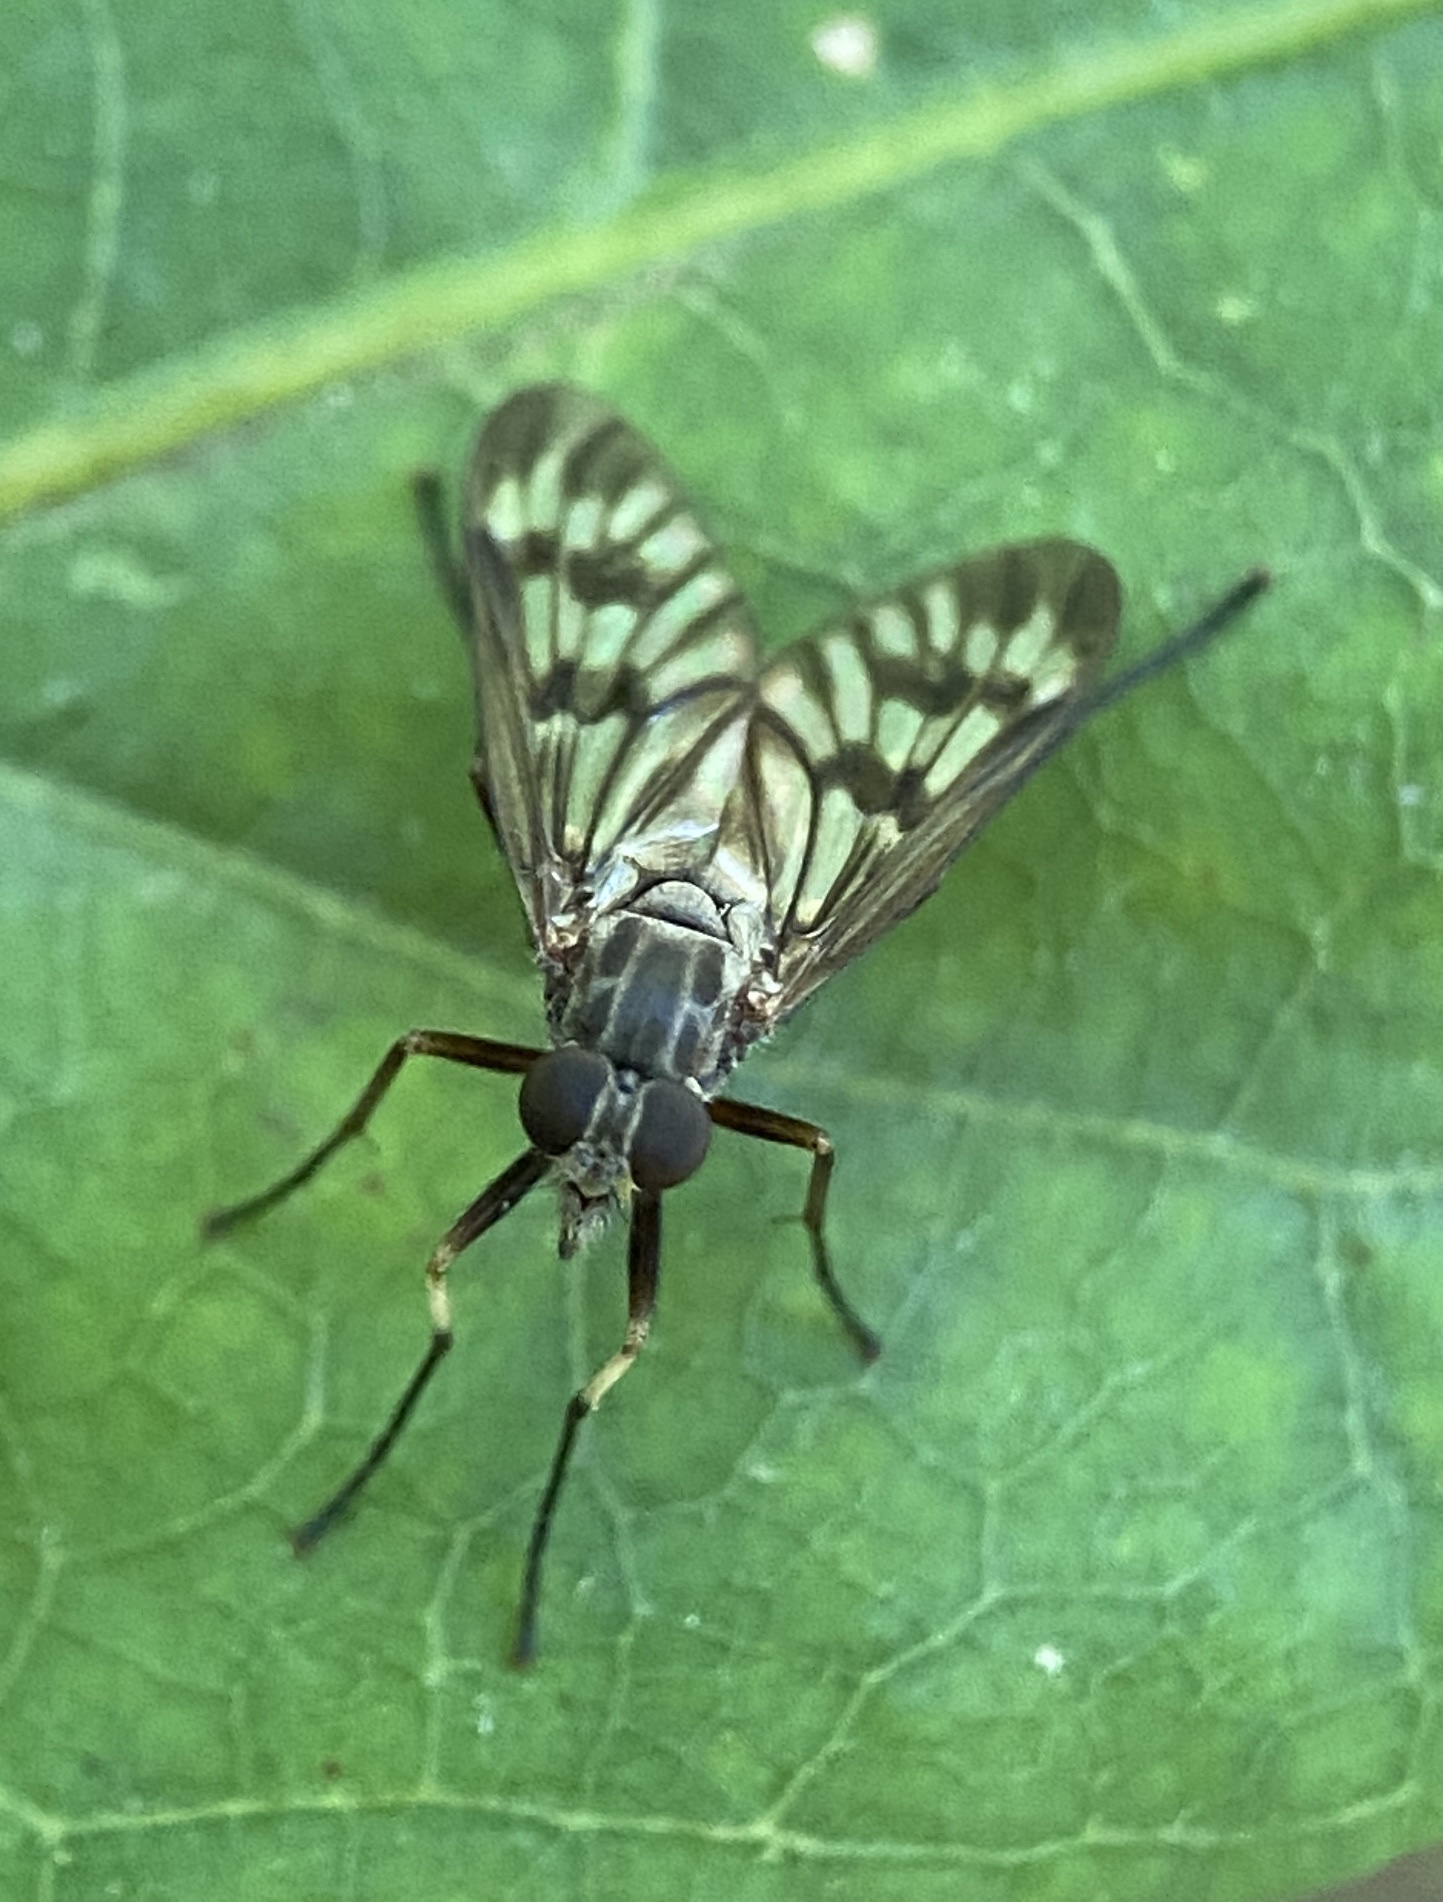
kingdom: Animalia
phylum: Arthropoda
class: Insecta
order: Diptera
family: Rhagionidae
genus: Rhagio
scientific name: Rhagio mystaceus
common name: Common snipe fly
